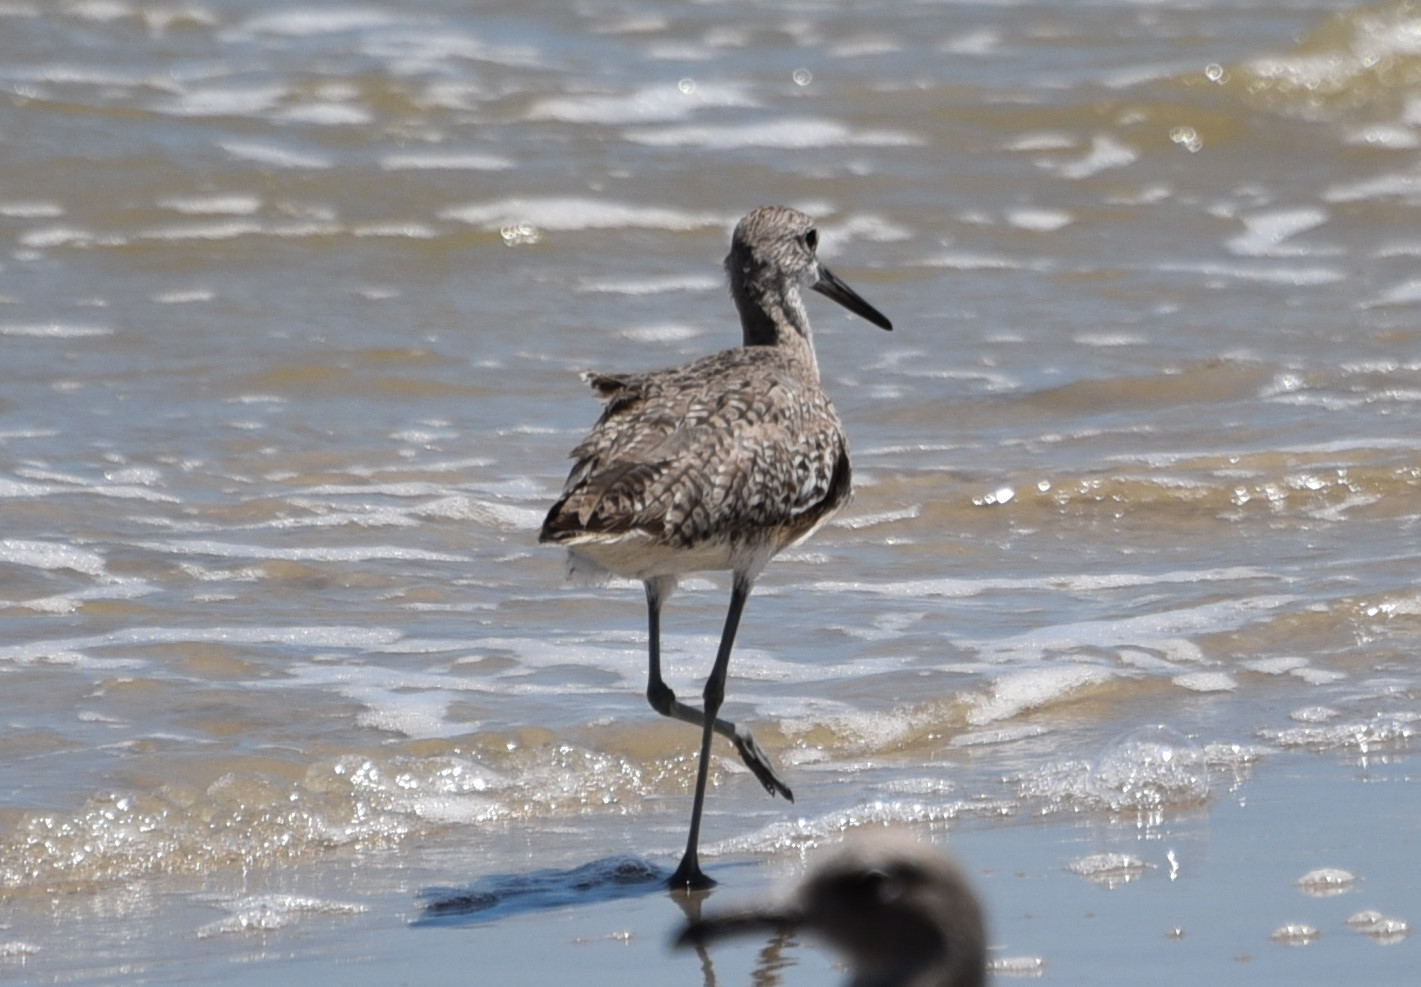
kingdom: Animalia
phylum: Chordata
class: Aves
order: Charadriiformes
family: Scolopacidae
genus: Tringa
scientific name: Tringa semipalmata
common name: Willet
